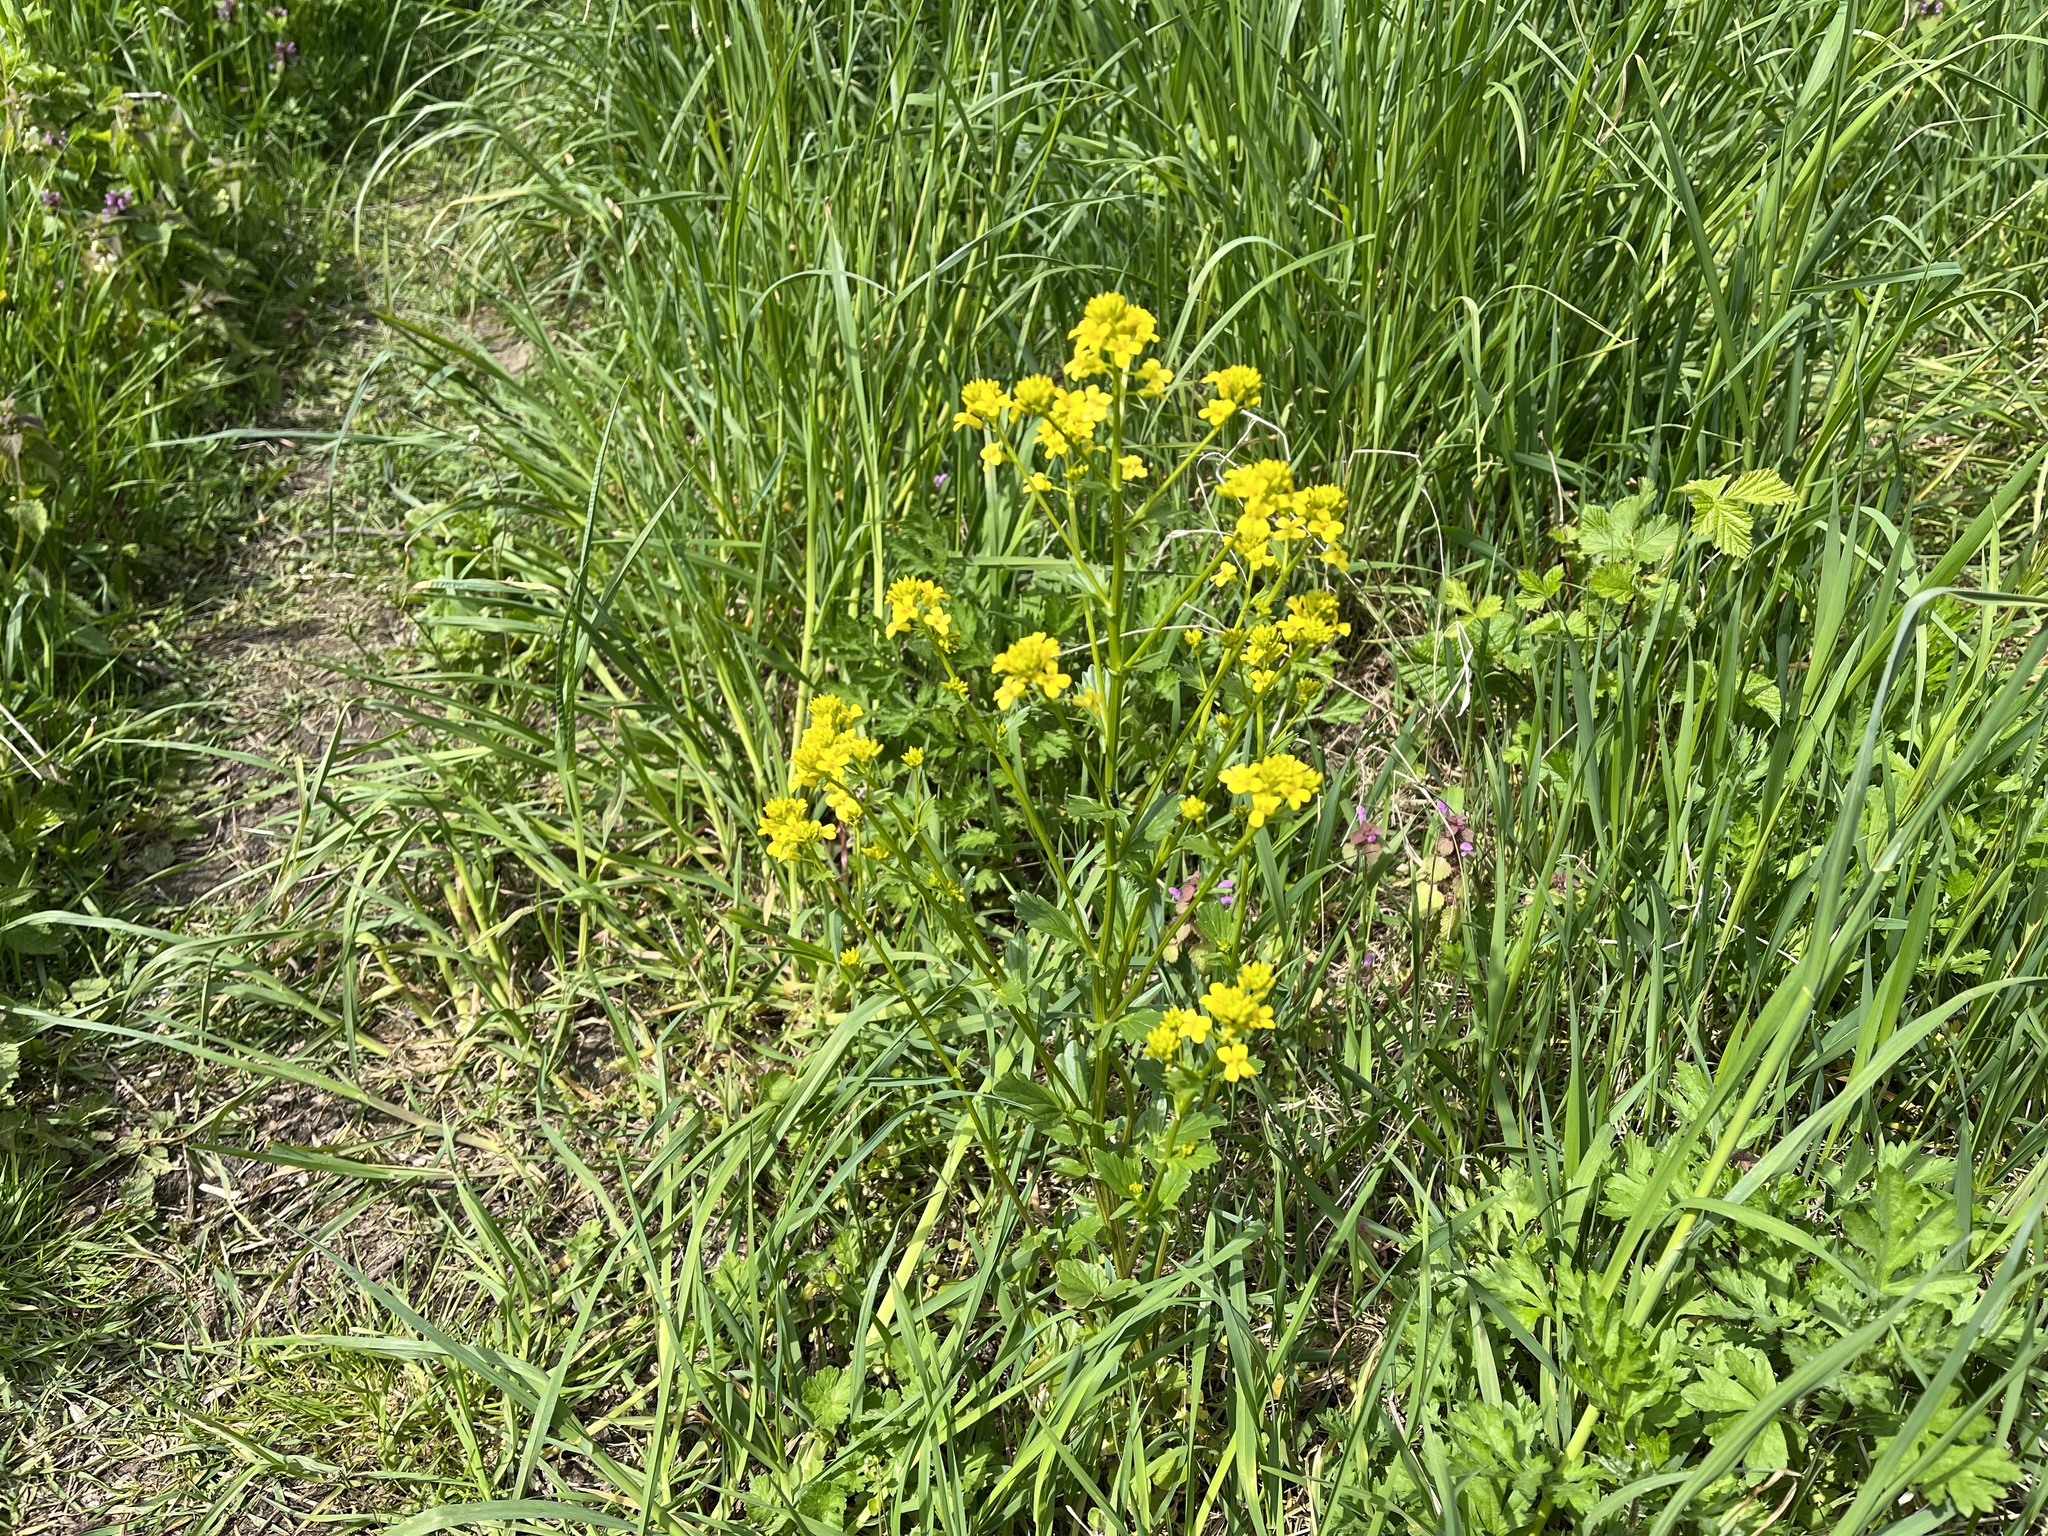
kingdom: Plantae
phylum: Tracheophyta
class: Magnoliopsida
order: Brassicales
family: Brassicaceae
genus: Barbarea
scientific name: Barbarea vulgaris
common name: Cressy-greens
